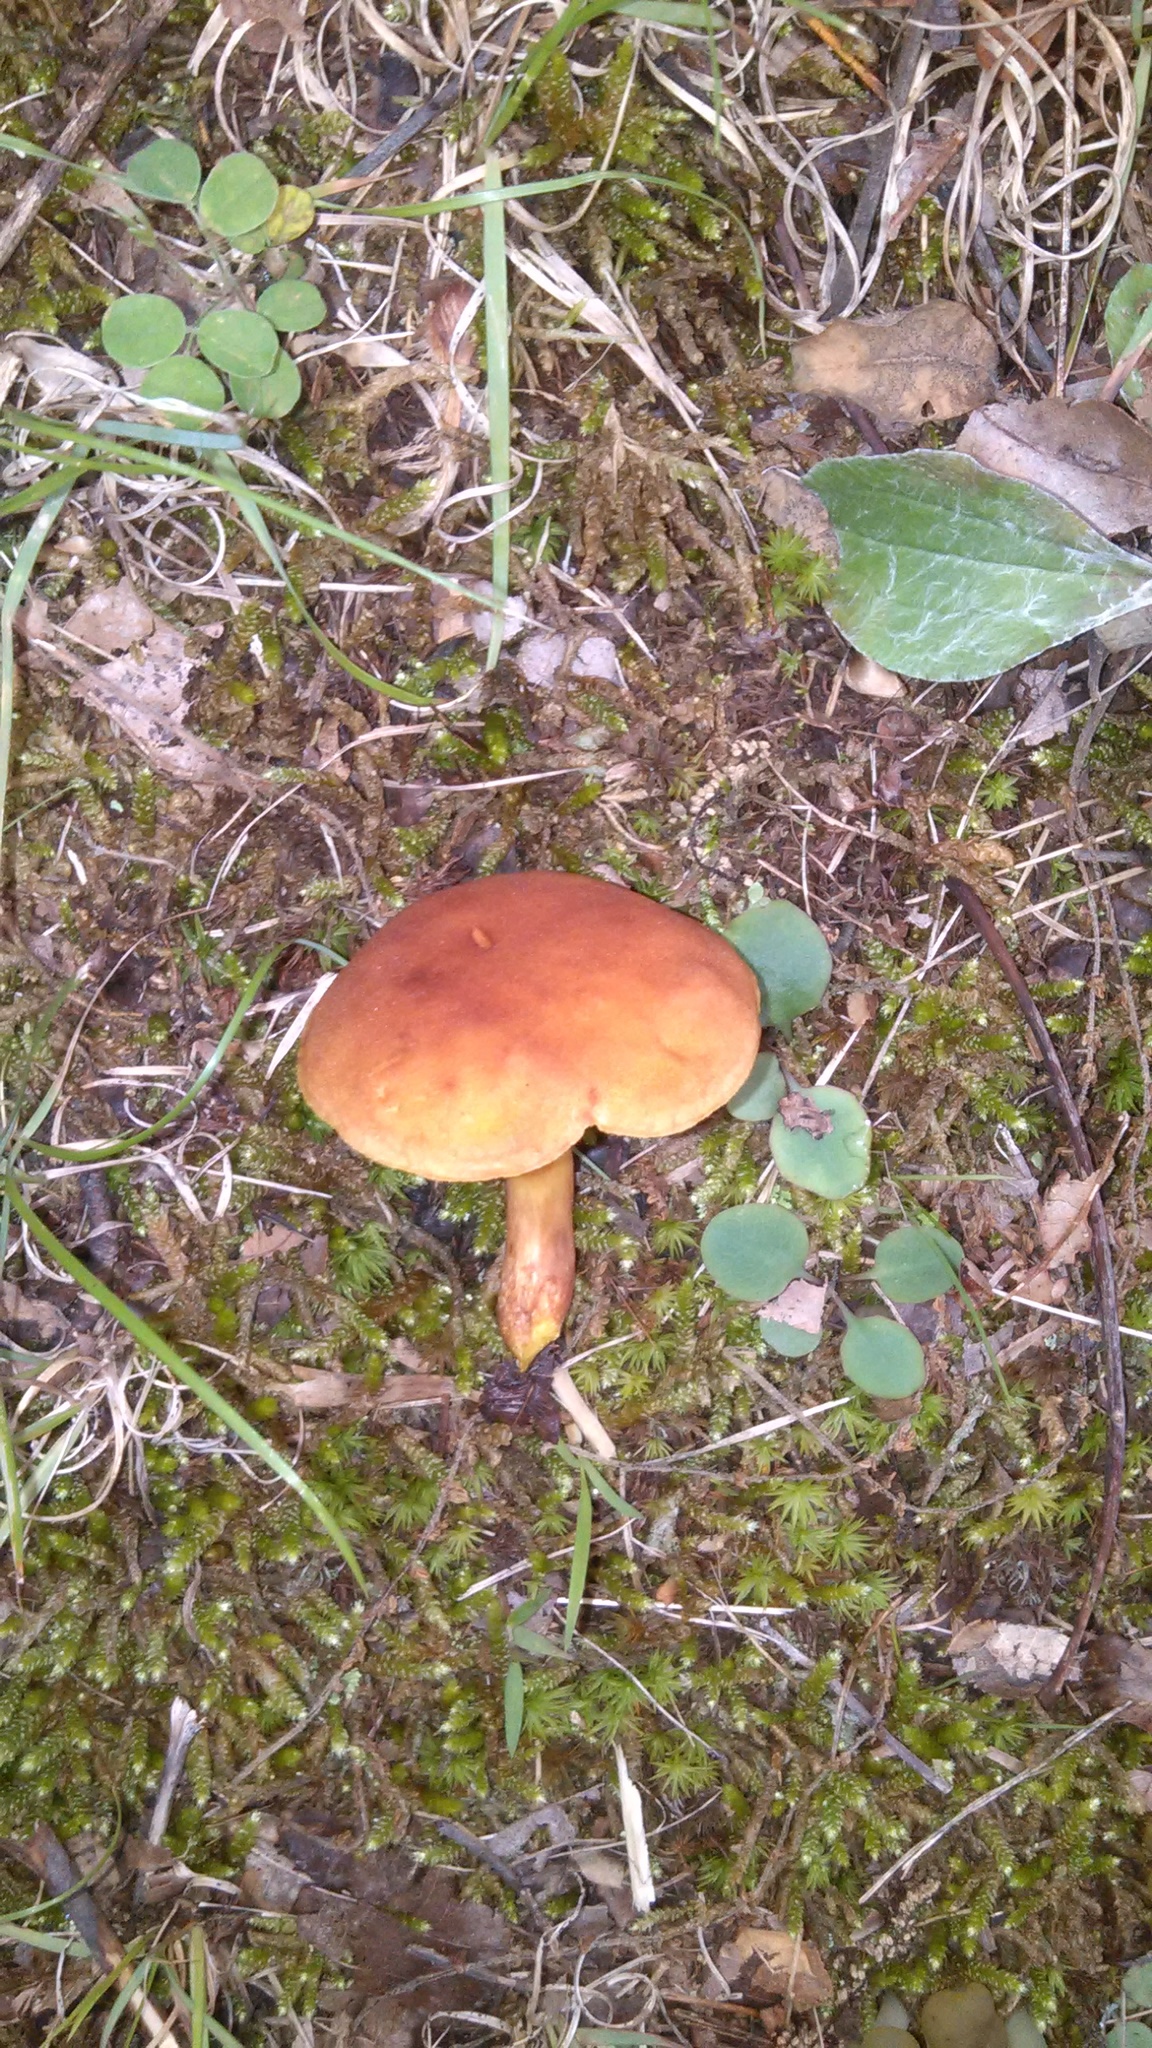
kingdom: Fungi
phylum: Basidiomycota
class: Agaricomycetes
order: Boletales
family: Gyroporaceae
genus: Gyroporus
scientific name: Gyroporus castaneus
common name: Chestnut bolete
